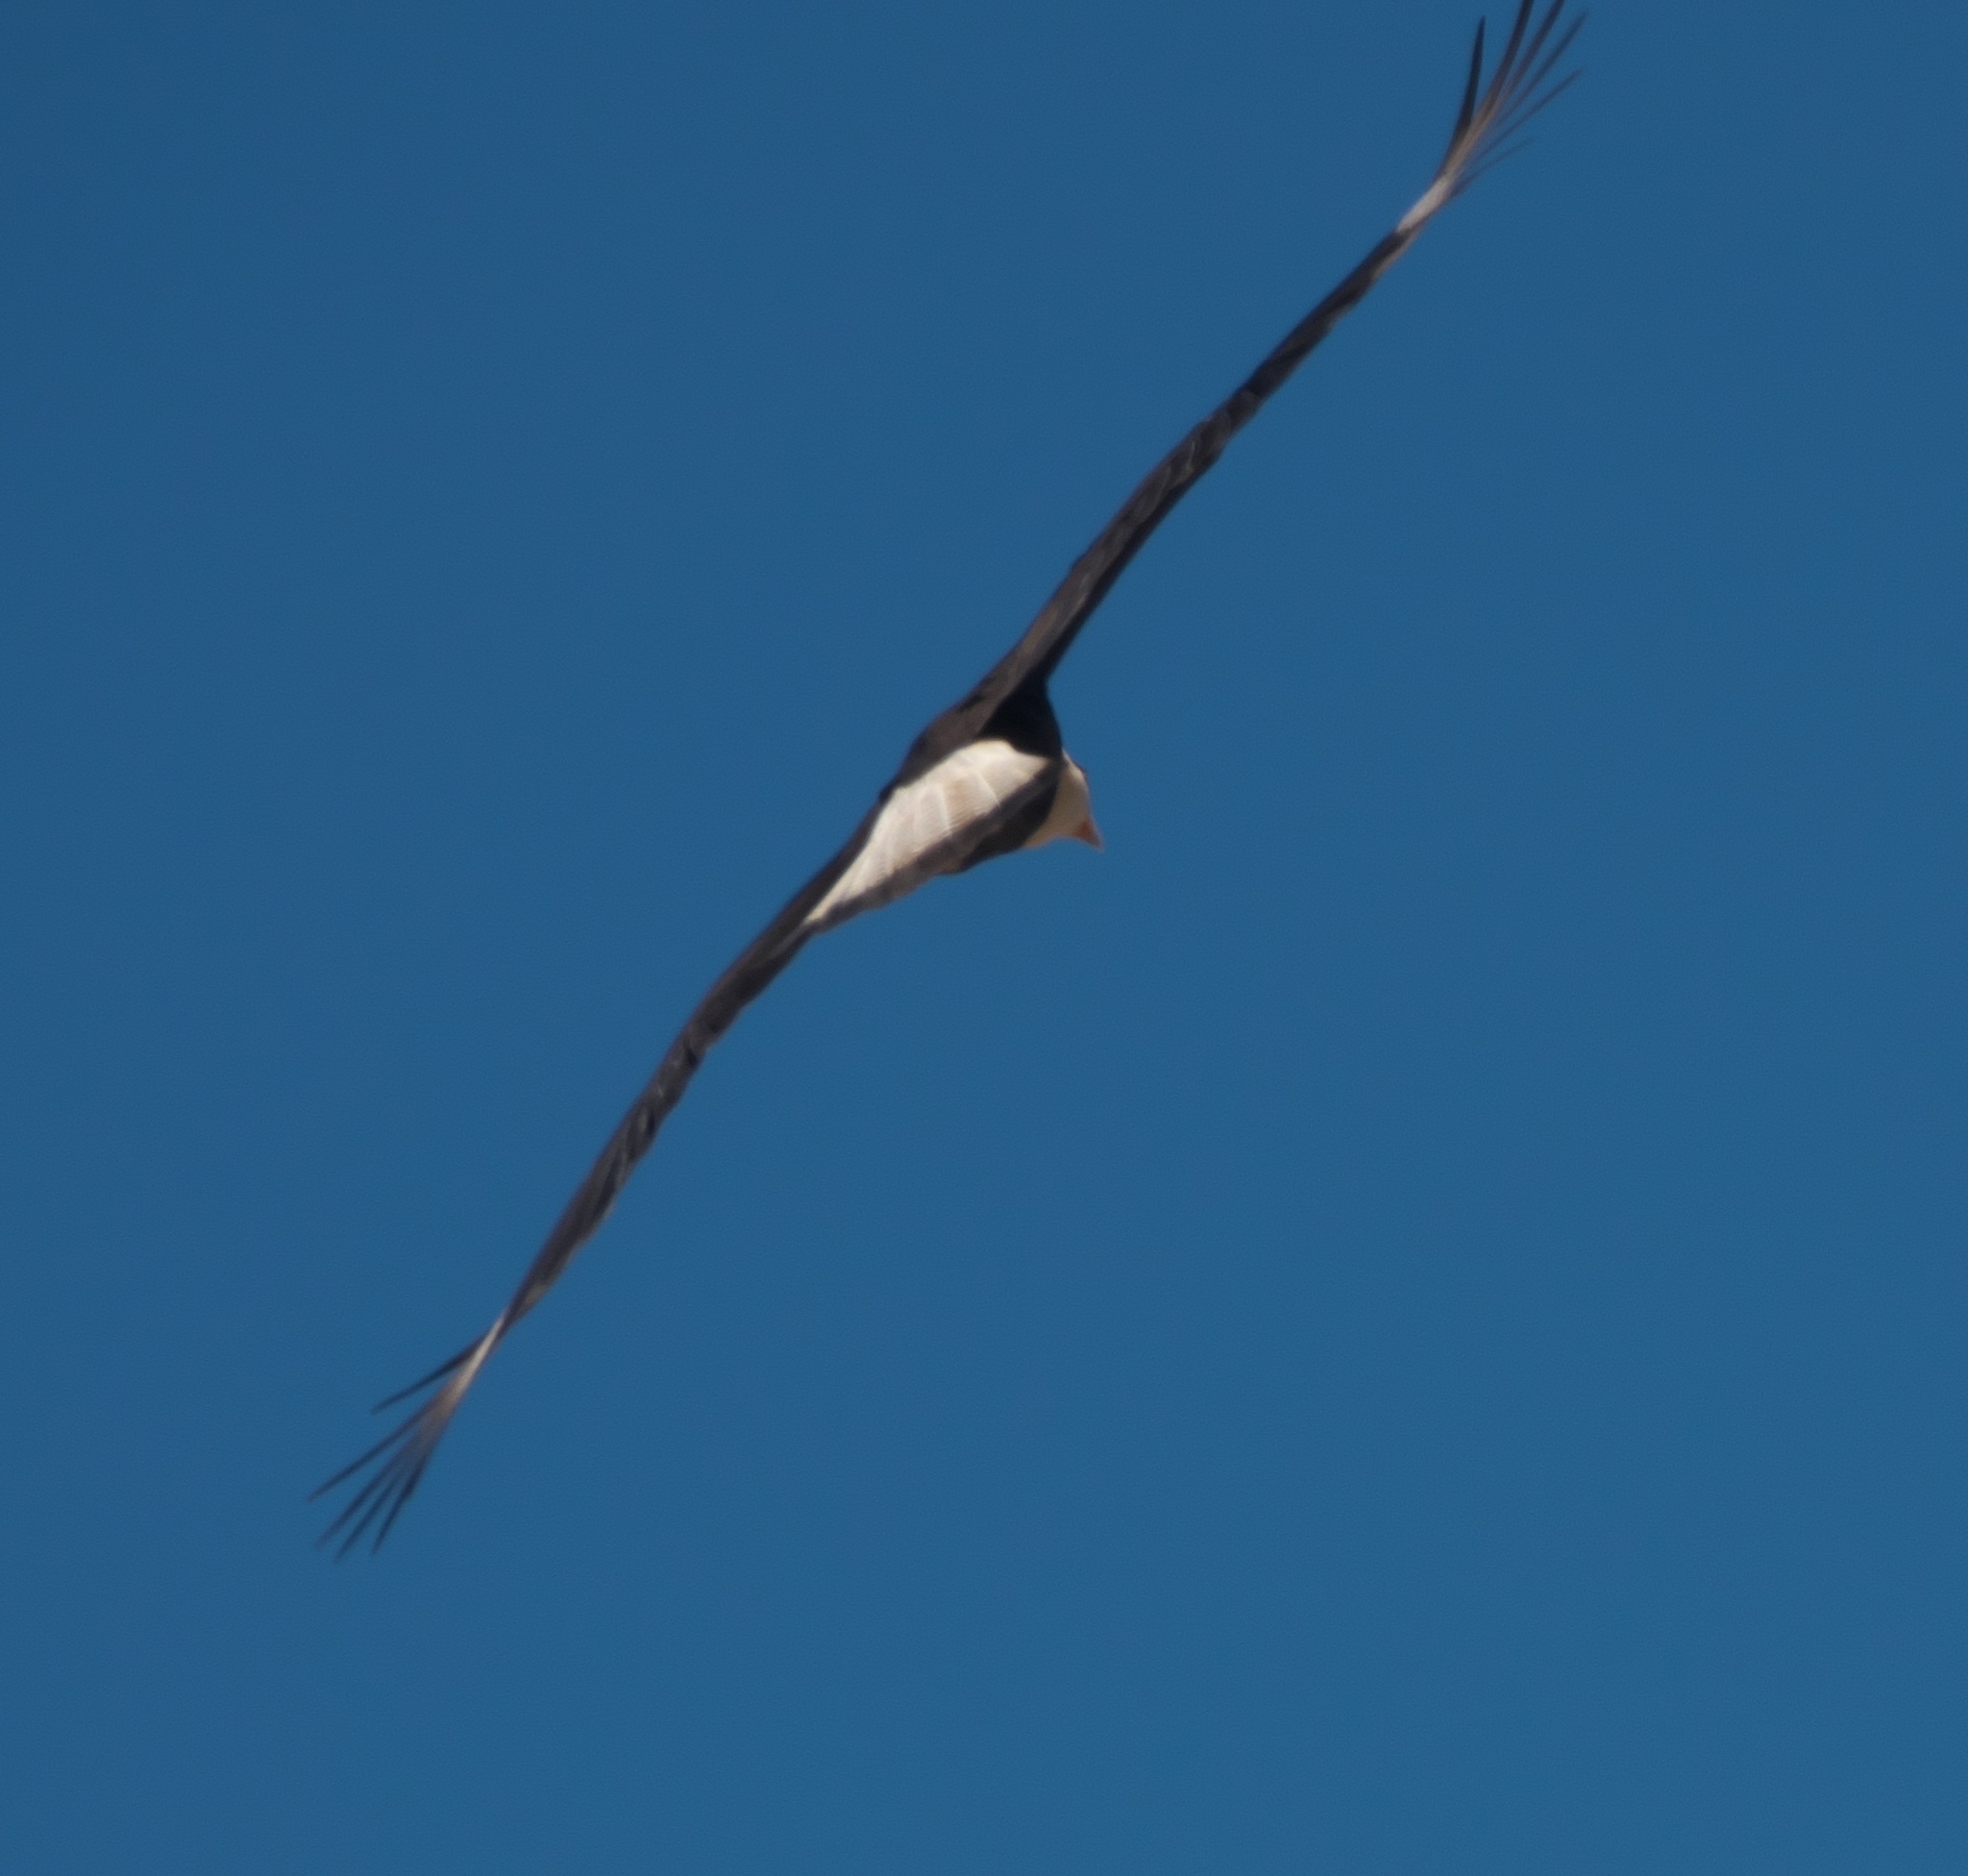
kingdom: Animalia
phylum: Chordata
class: Aves
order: Falconiformes
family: Falconidae
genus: Caracara
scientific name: Caracara plancus
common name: Southern caracara
